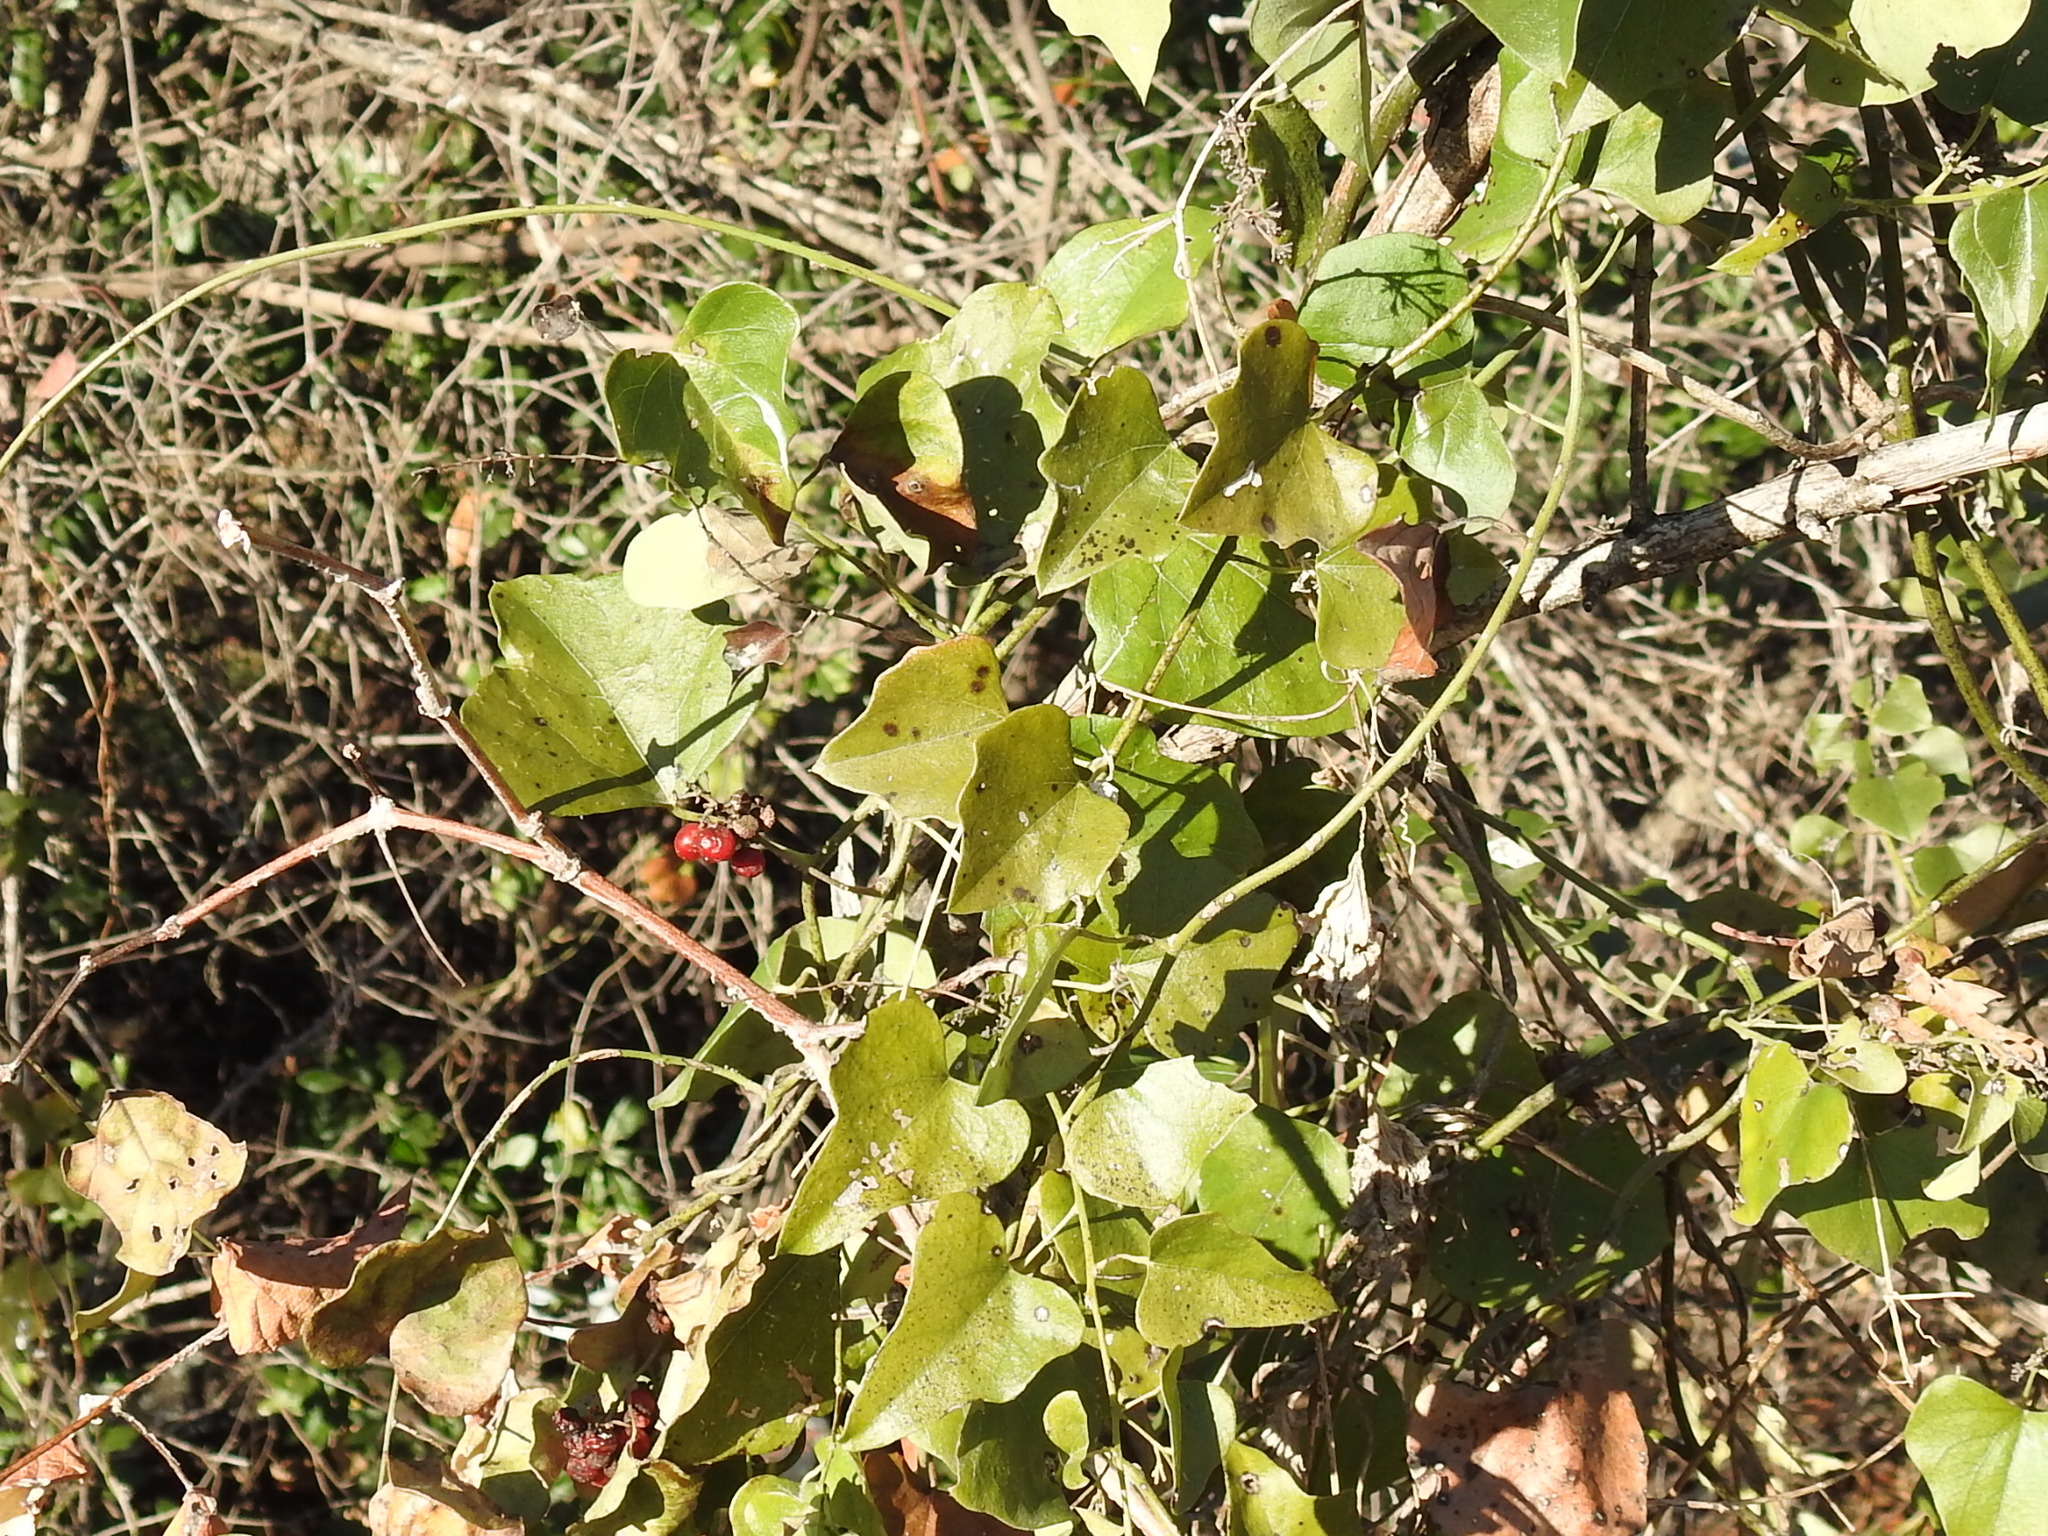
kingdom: Plantae
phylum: Tracheophyta
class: Magnoliopsida
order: Ranunculales
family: Menispermaceae
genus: Cocculus
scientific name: Cocculus carolinus
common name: Carolina moonseed
